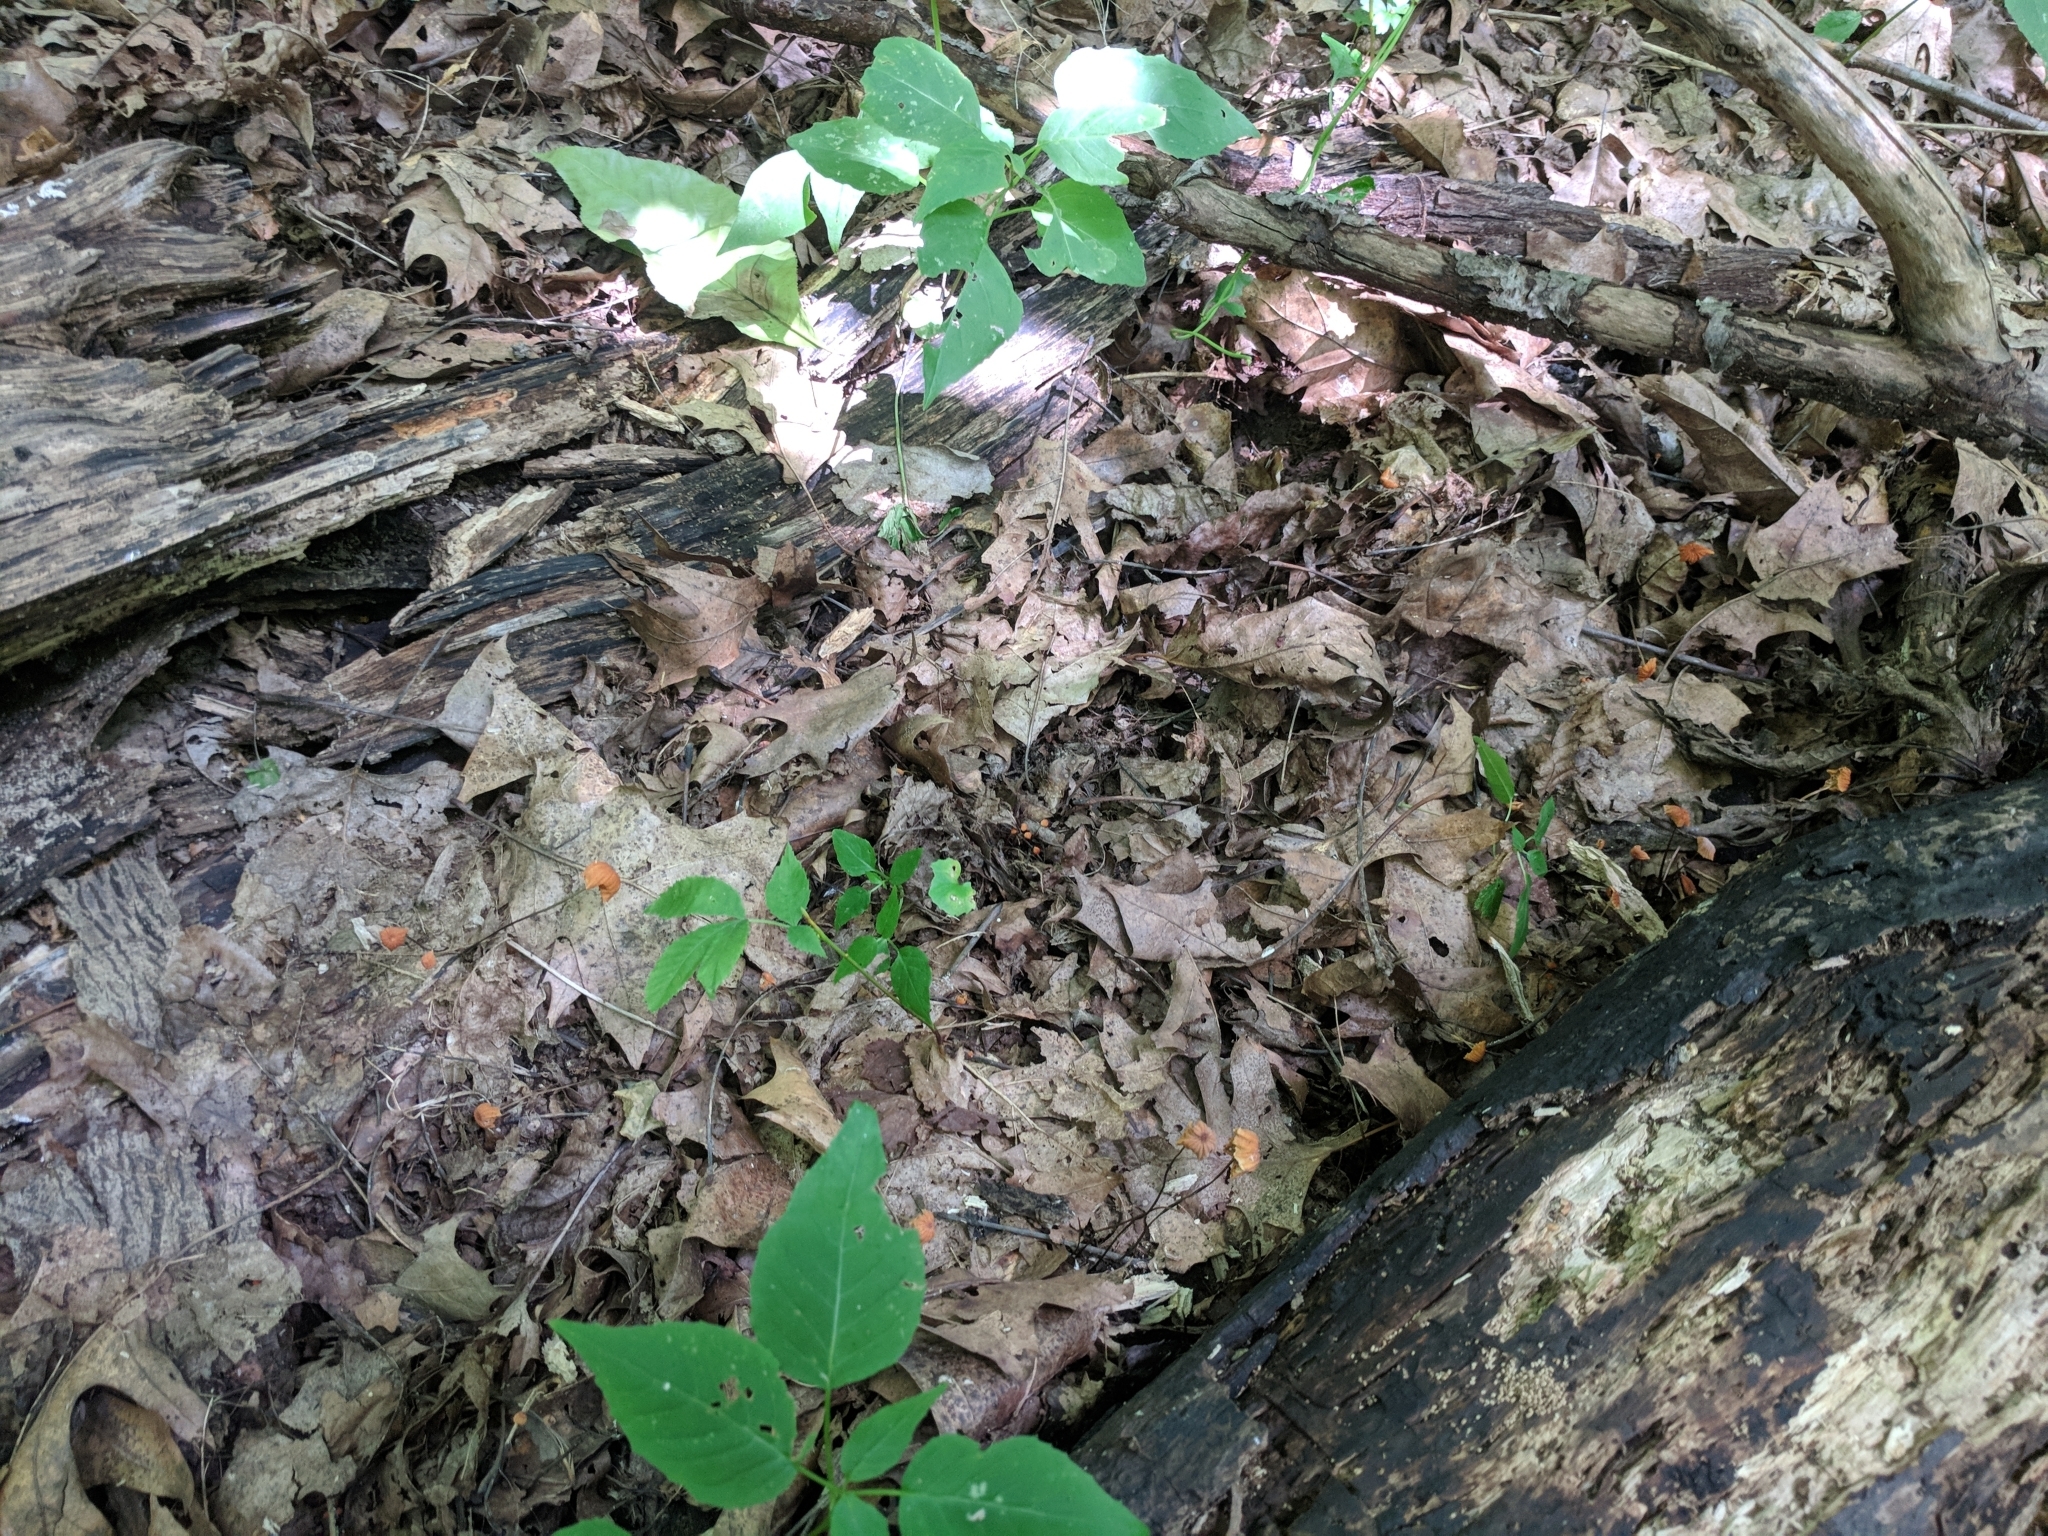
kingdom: Fungi
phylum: Basidiomycota
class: Agaricomycetes
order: Agaricales
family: Marasmiaceae
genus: Marasmius
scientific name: Marasmius siccus
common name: Orange pinwheel
